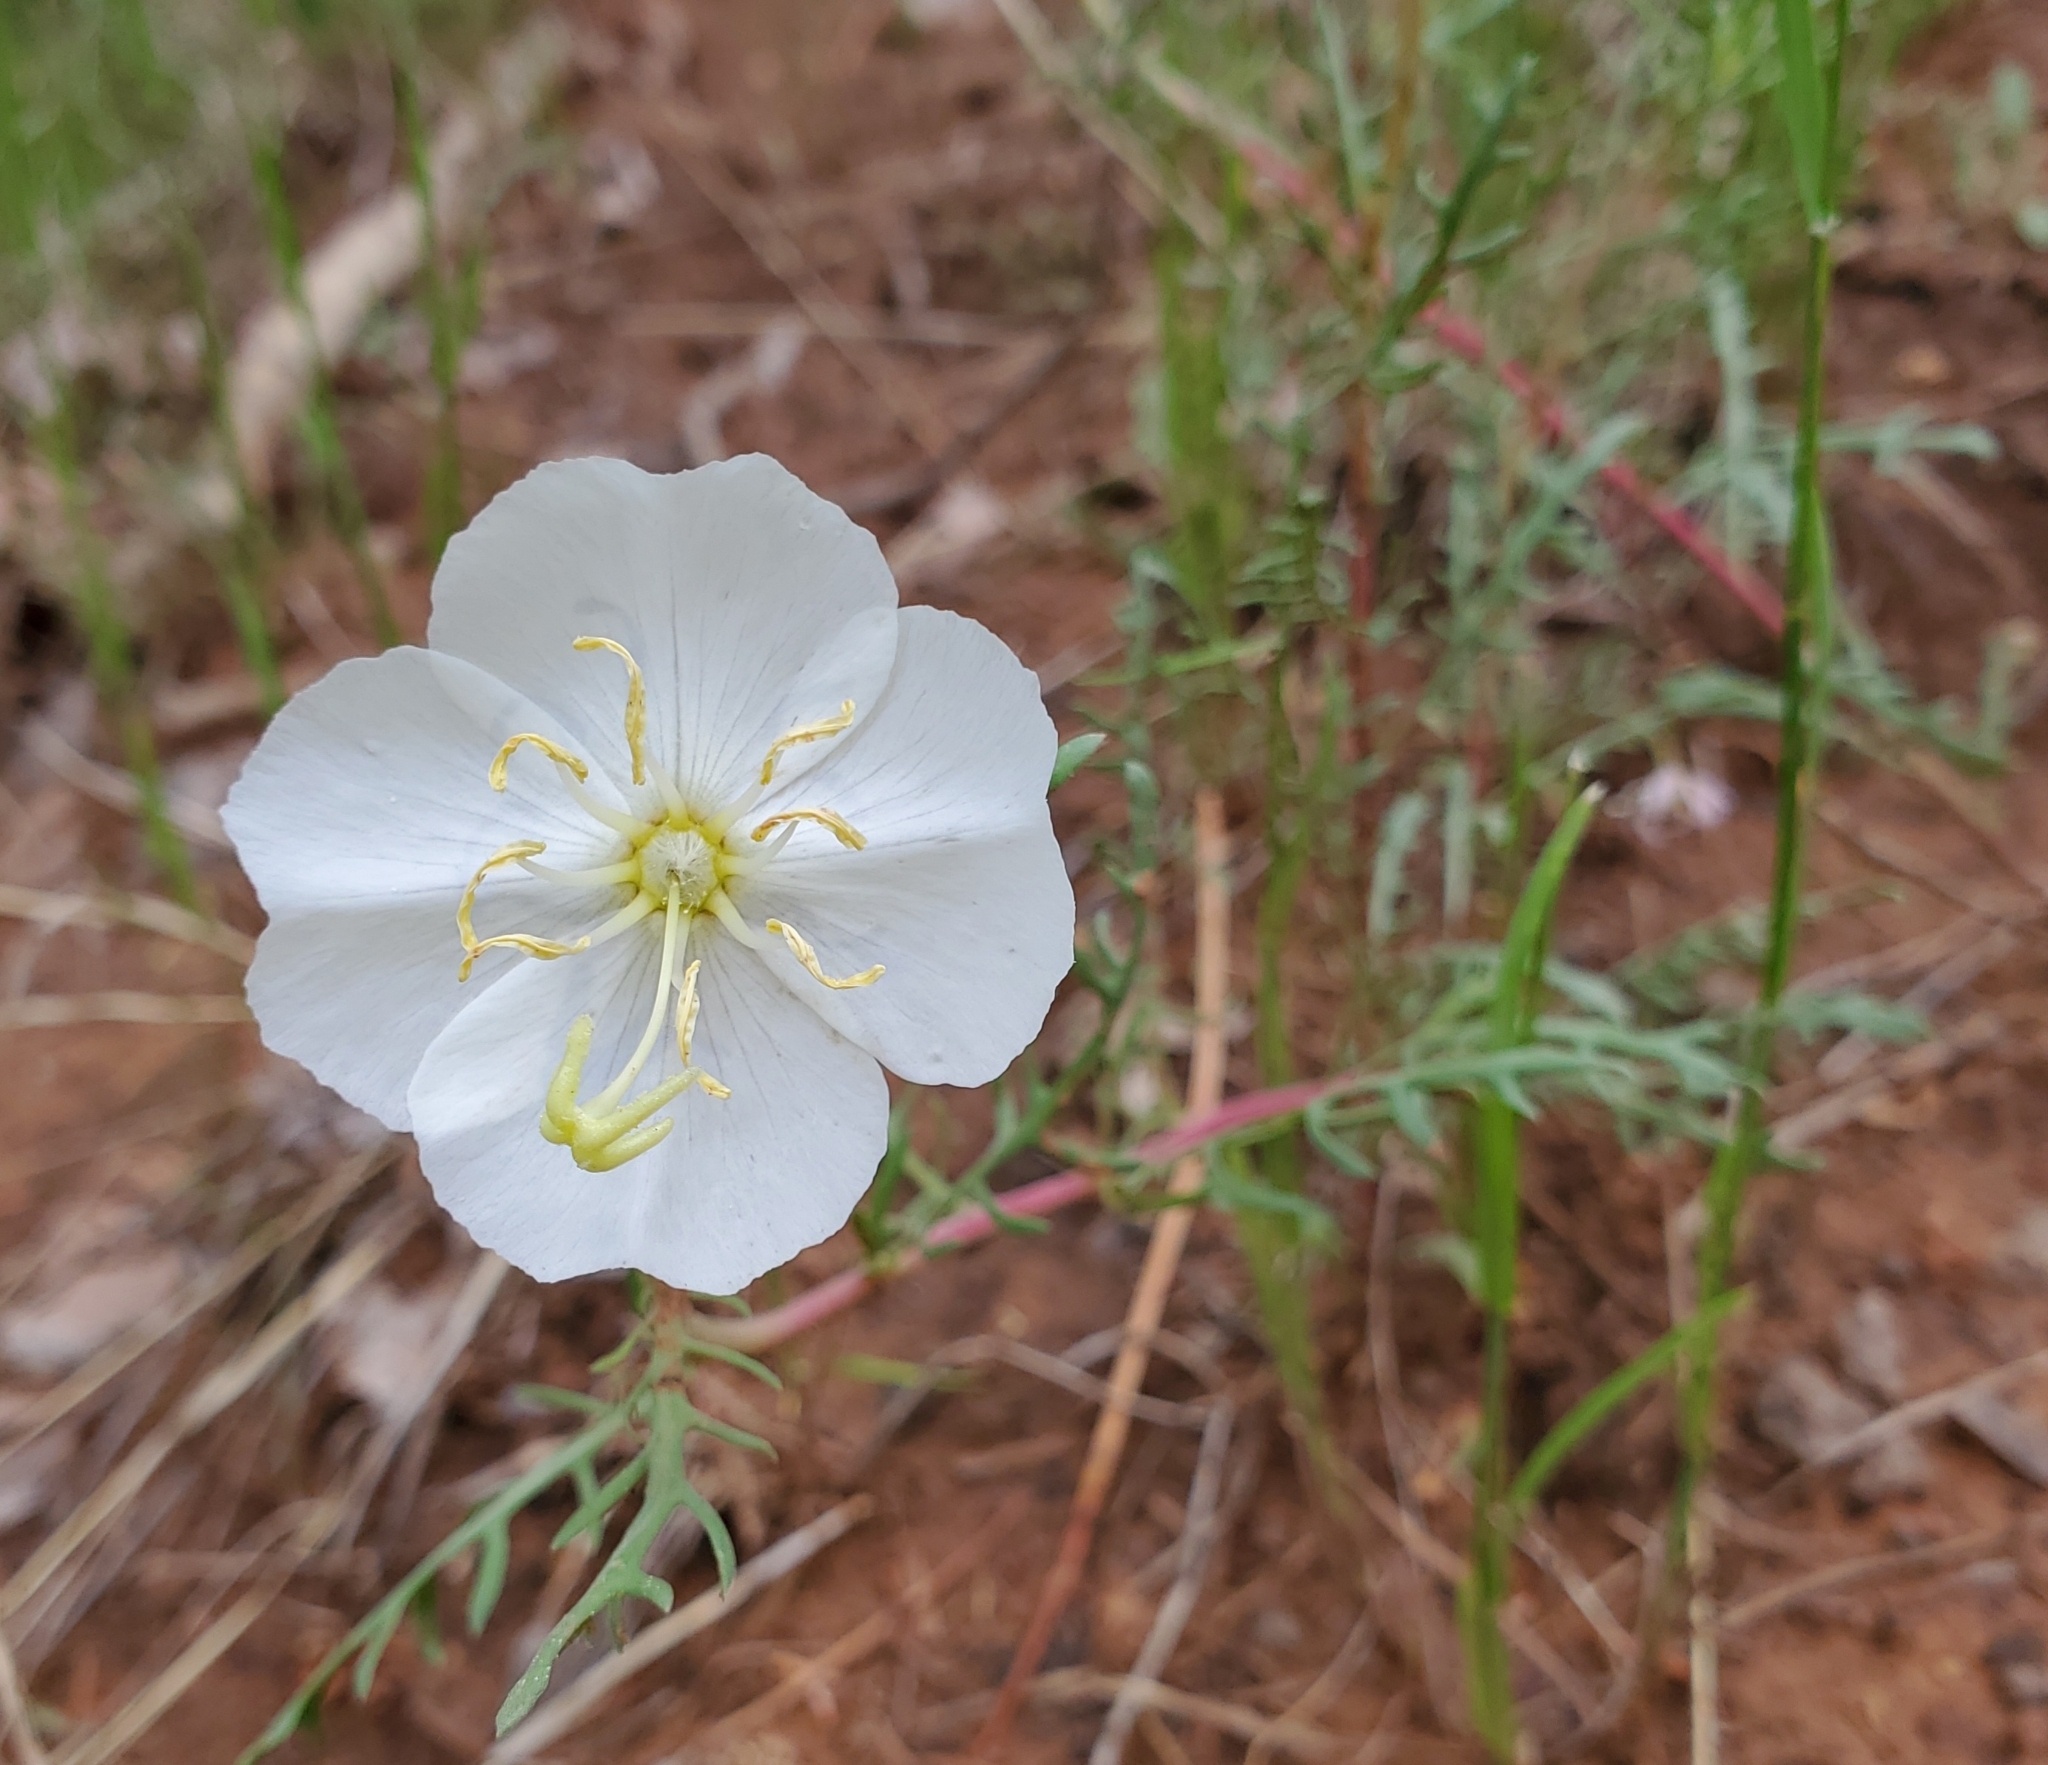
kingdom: Plantae
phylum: Tracheophyta
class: Magnoliopsida
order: Myrtales
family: Onagraceae
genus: Oenothera
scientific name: Oenothera pallida
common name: Pale evening-primrose
